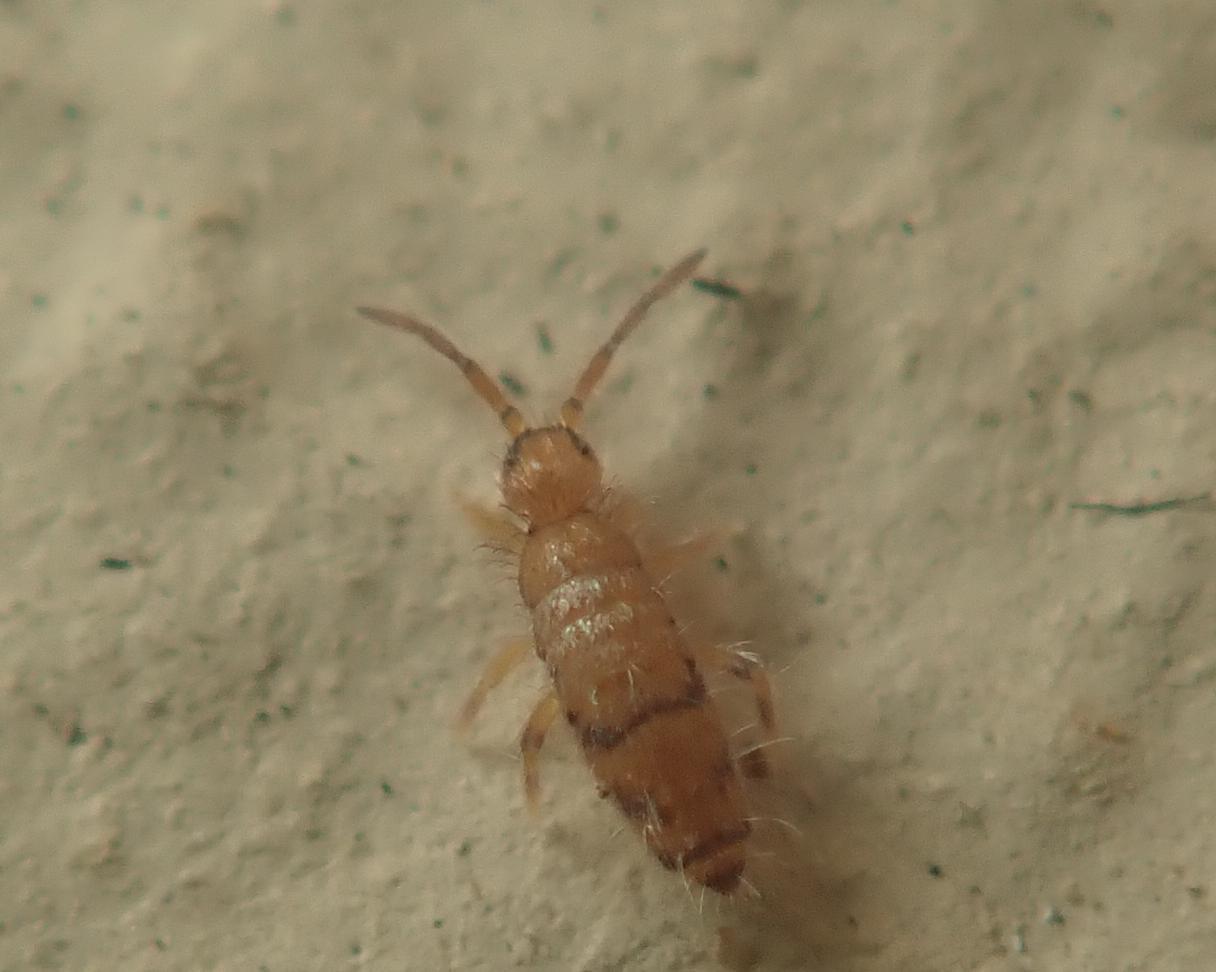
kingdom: Animalia
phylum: Arthropoda
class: Collembola
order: Entomobryomorpha
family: Entomobryidae
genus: Willowsia
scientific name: Willowsia nigromaculata
